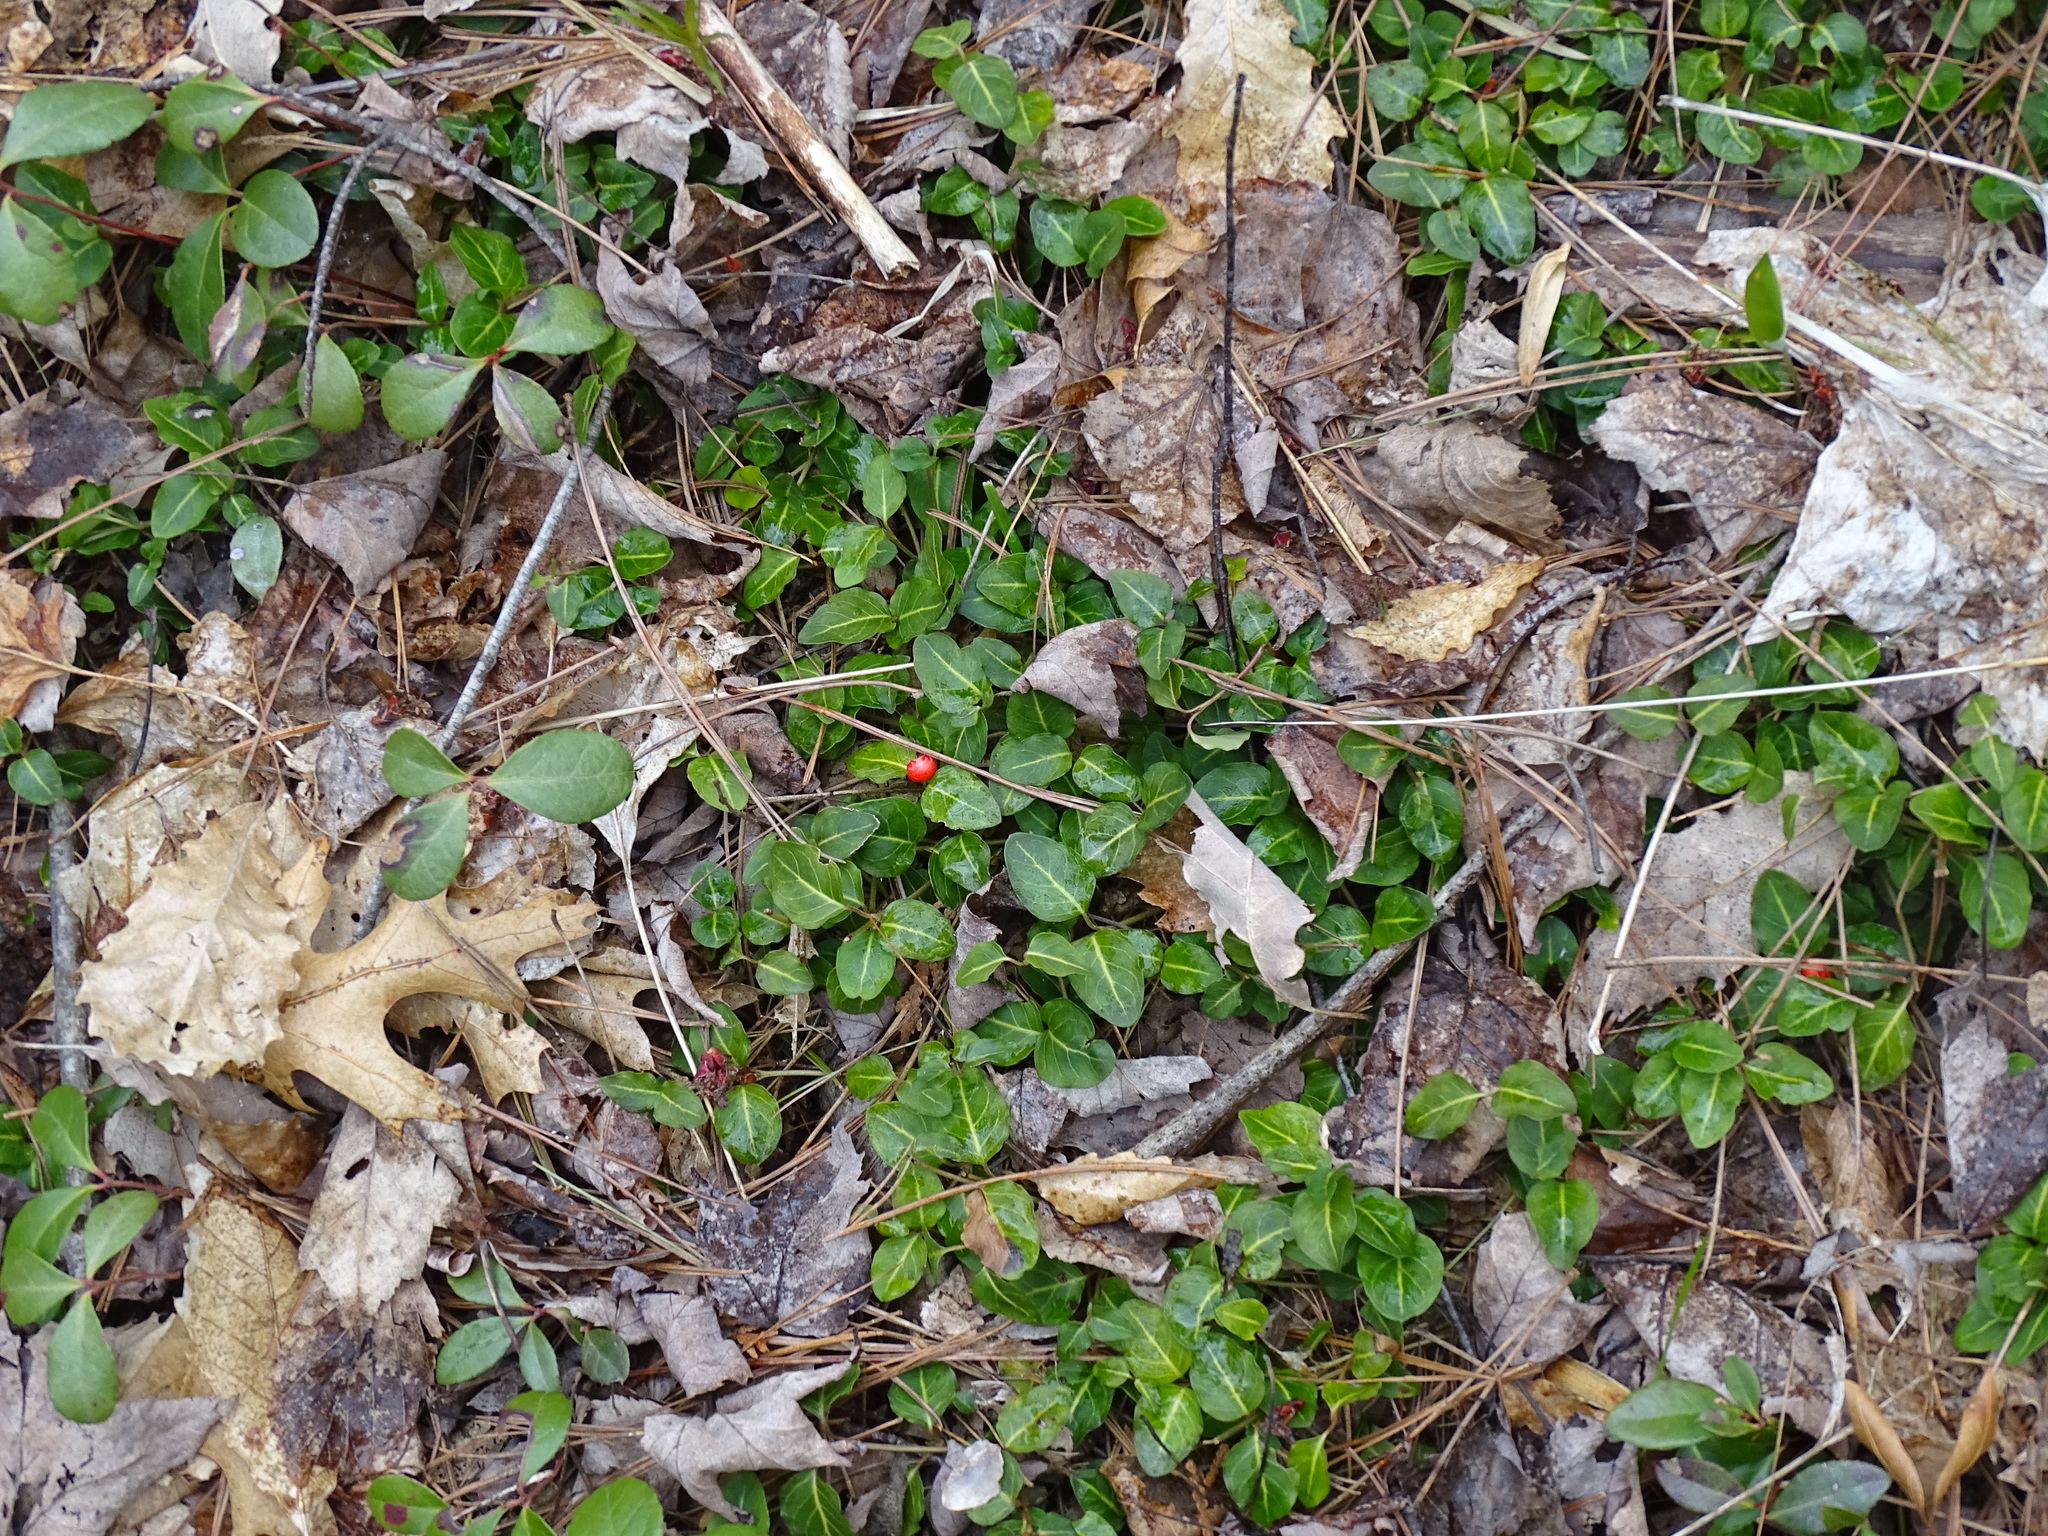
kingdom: Plantae
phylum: Tracheophyta
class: Magnoliopsida
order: Gentianales
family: Rubiaceae
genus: Mitchella
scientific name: Mitchella repens
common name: Partridge-berry
